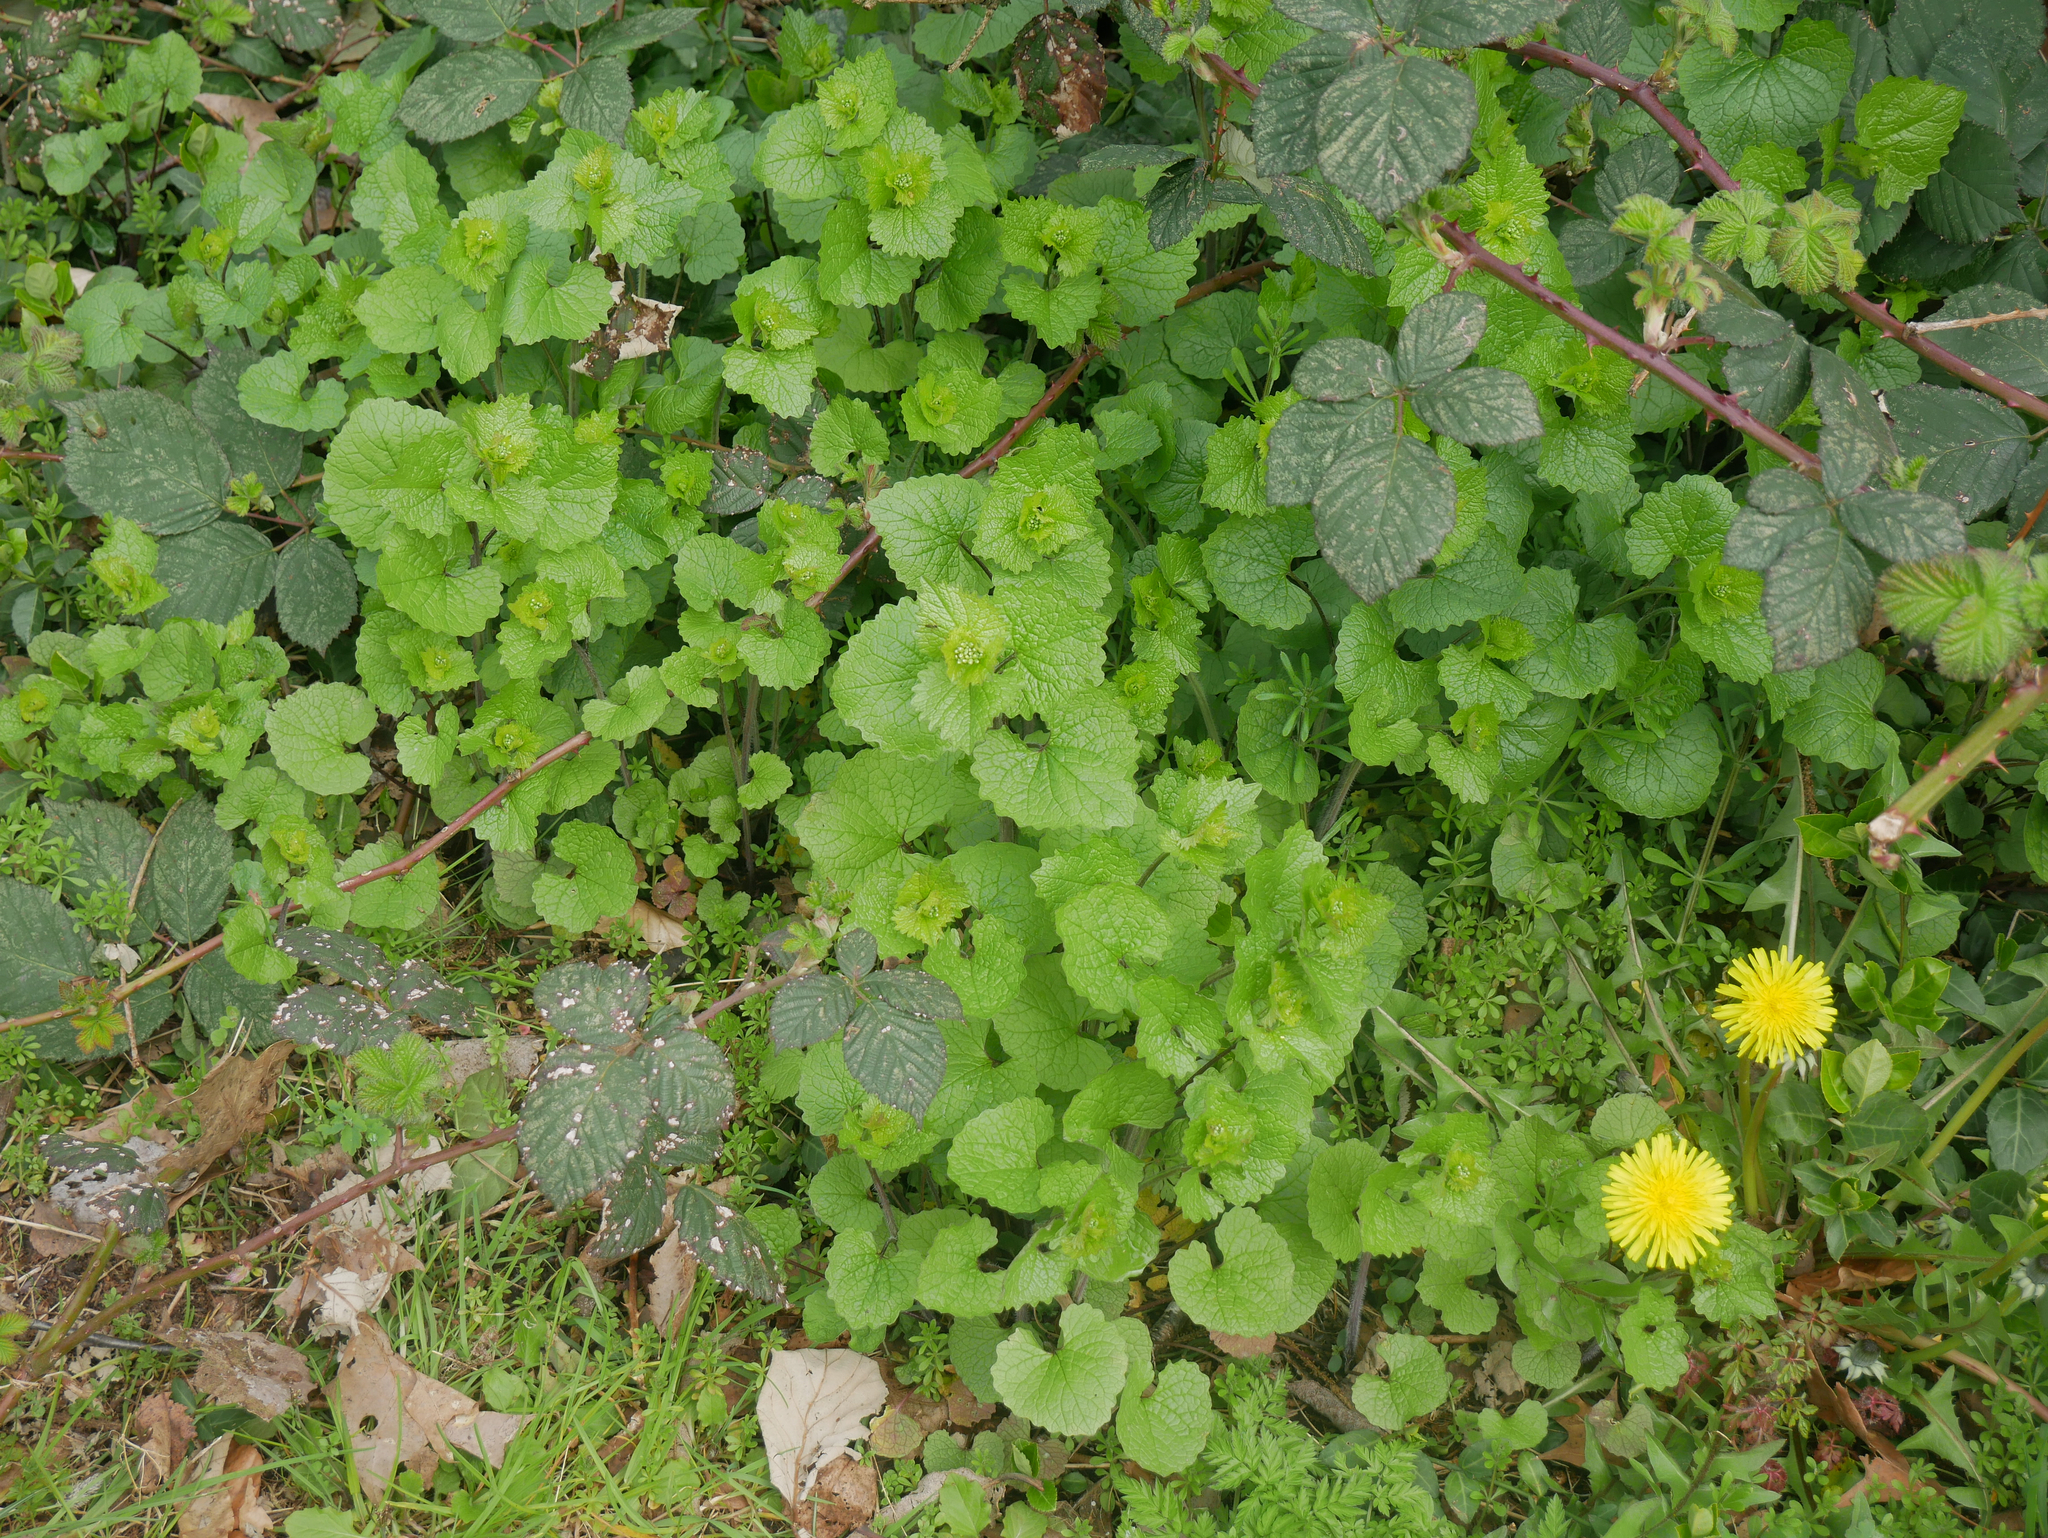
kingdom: Plantae
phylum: Tracheophyta
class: Magnoliopsida
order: Brassicales
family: Brassicaceae
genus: Alliaria
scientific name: Alliaria petiolata
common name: Garlic mustard
